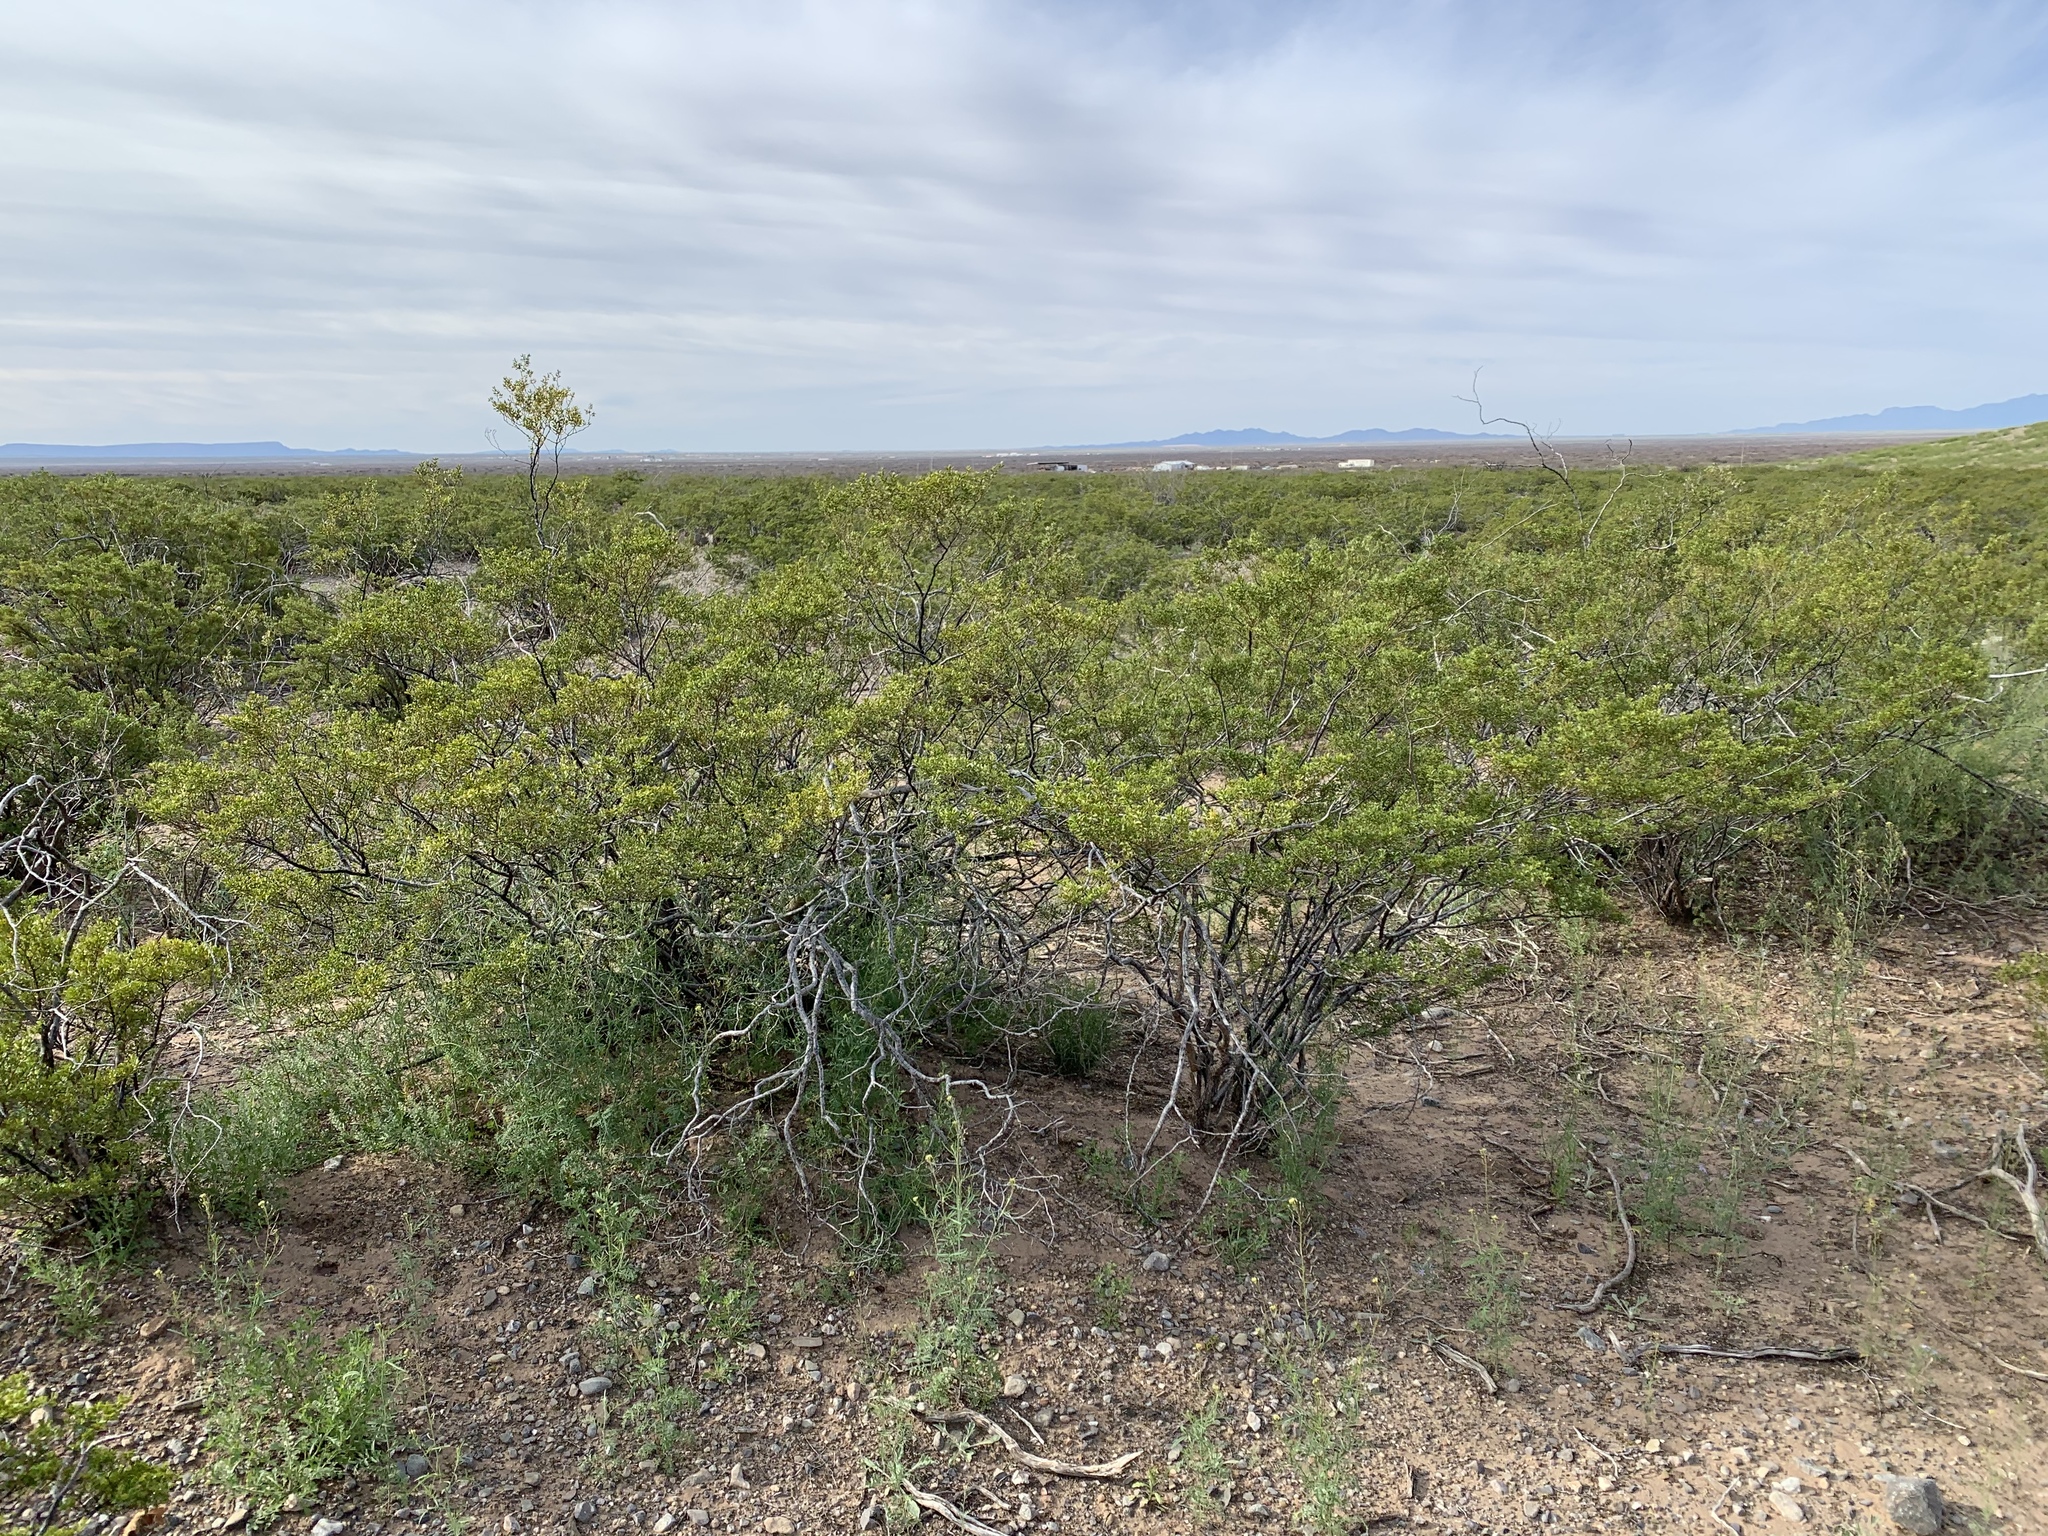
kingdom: Plantae
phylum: Tracheophyta
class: Magnoliopsida
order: Zygophyllales
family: Zygophyllaceae
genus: Larrea
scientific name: Larrea tridentata
